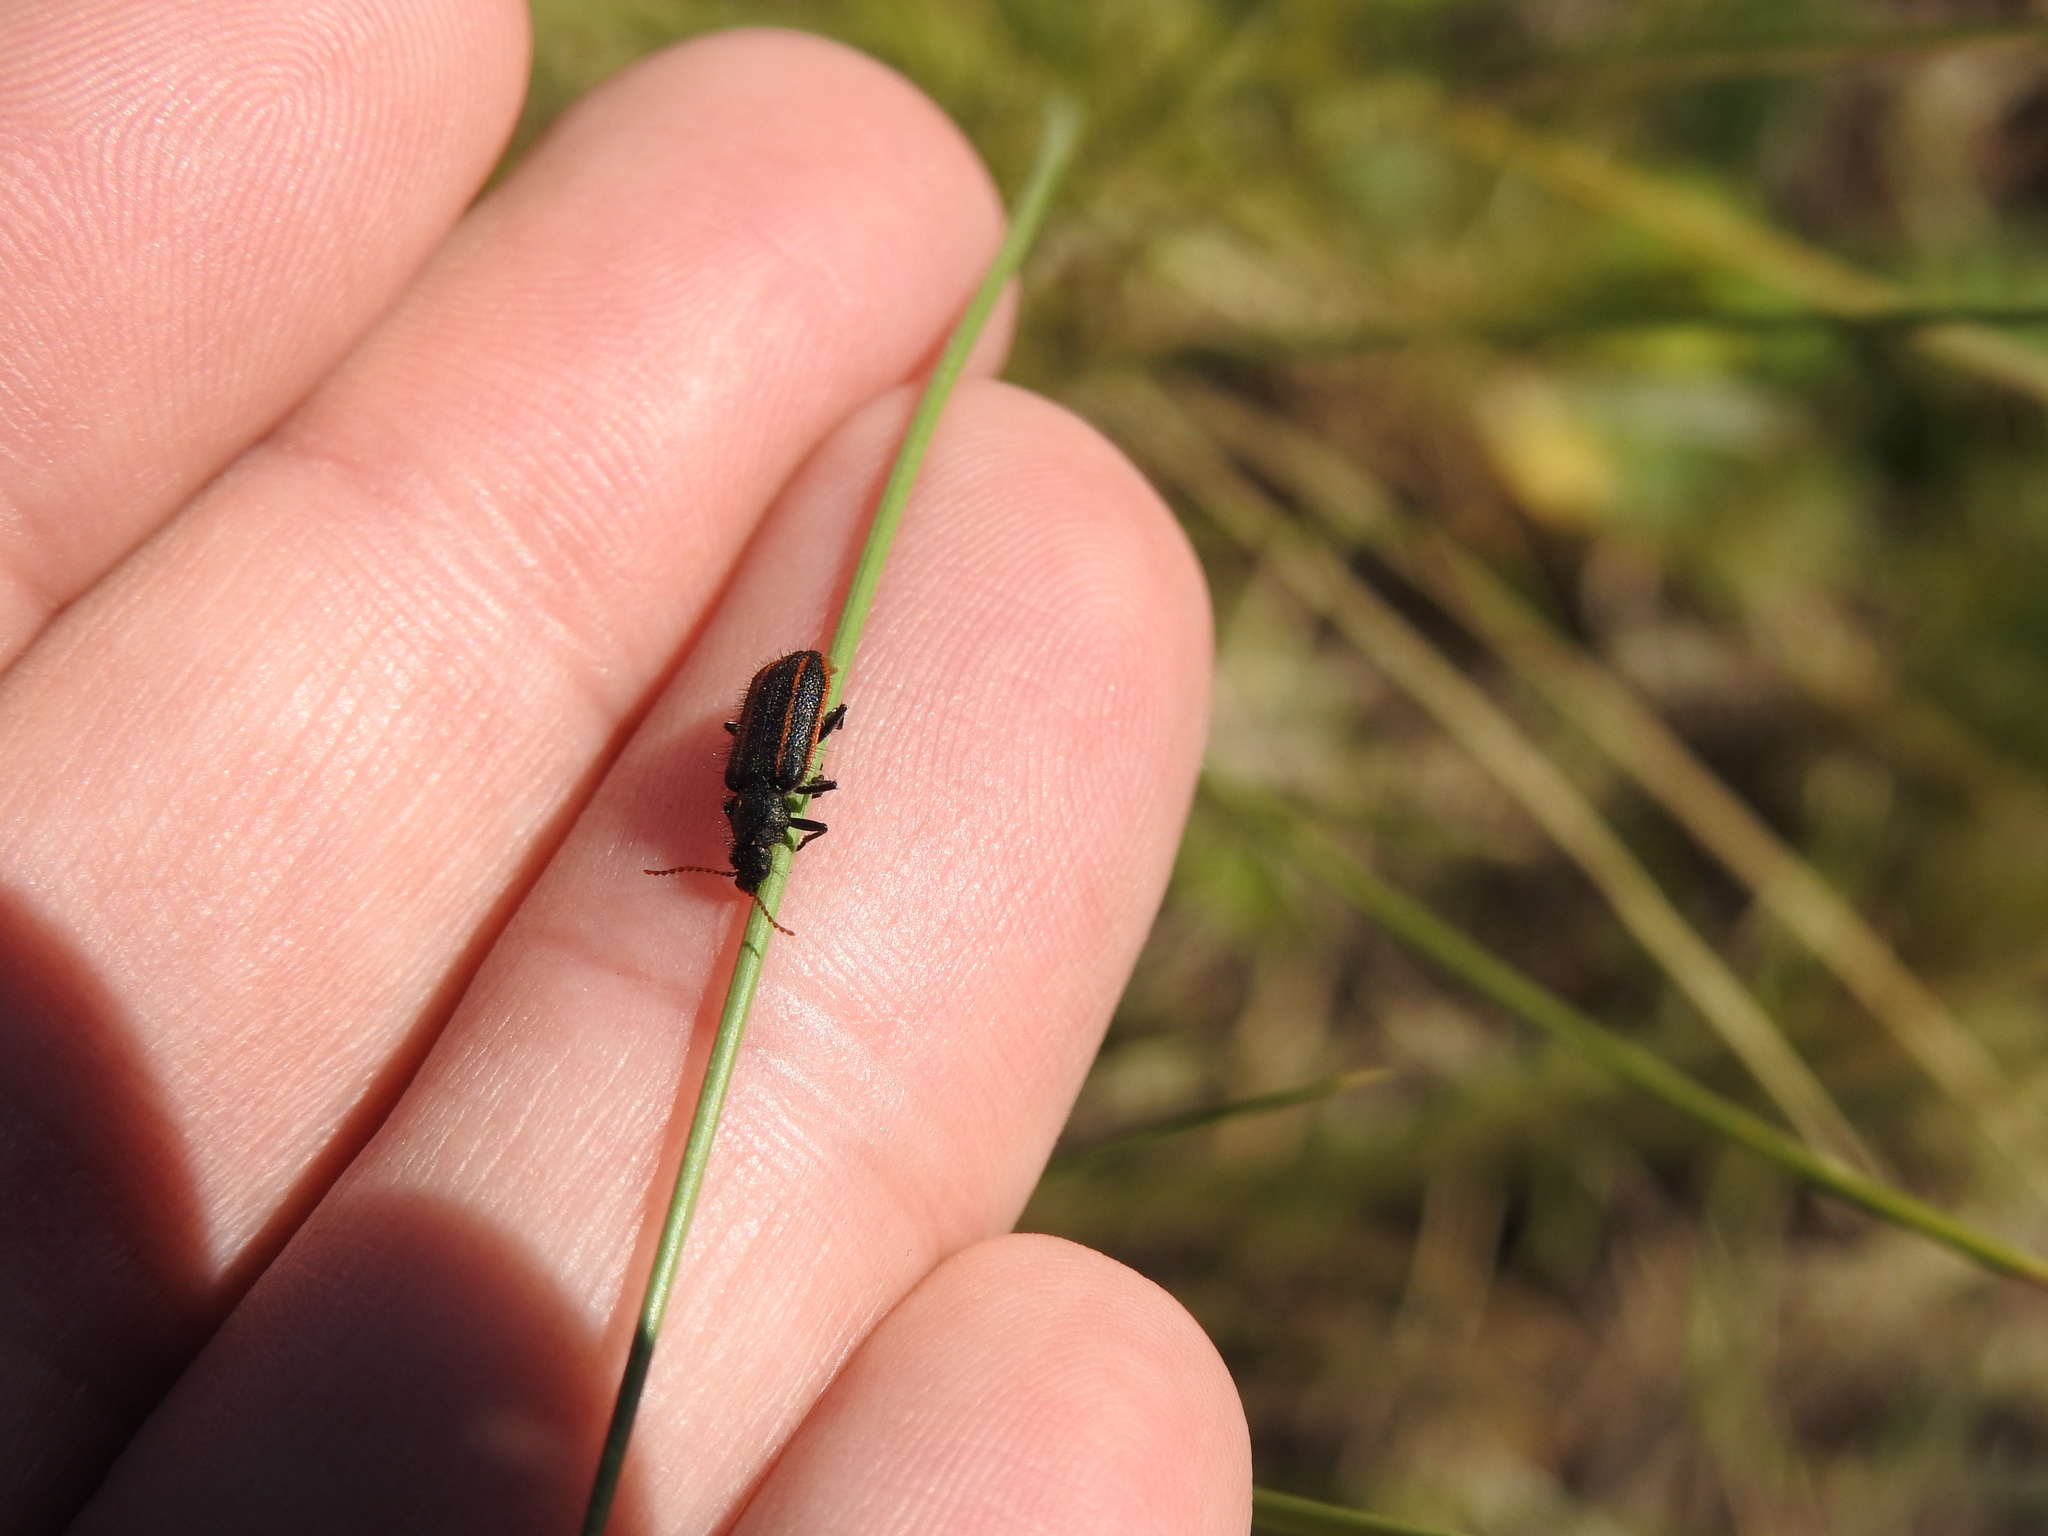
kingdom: Animalia
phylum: Arthropoda
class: Insecta
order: Coleoptera
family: Melyridae
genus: Astylus
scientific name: Astylus
